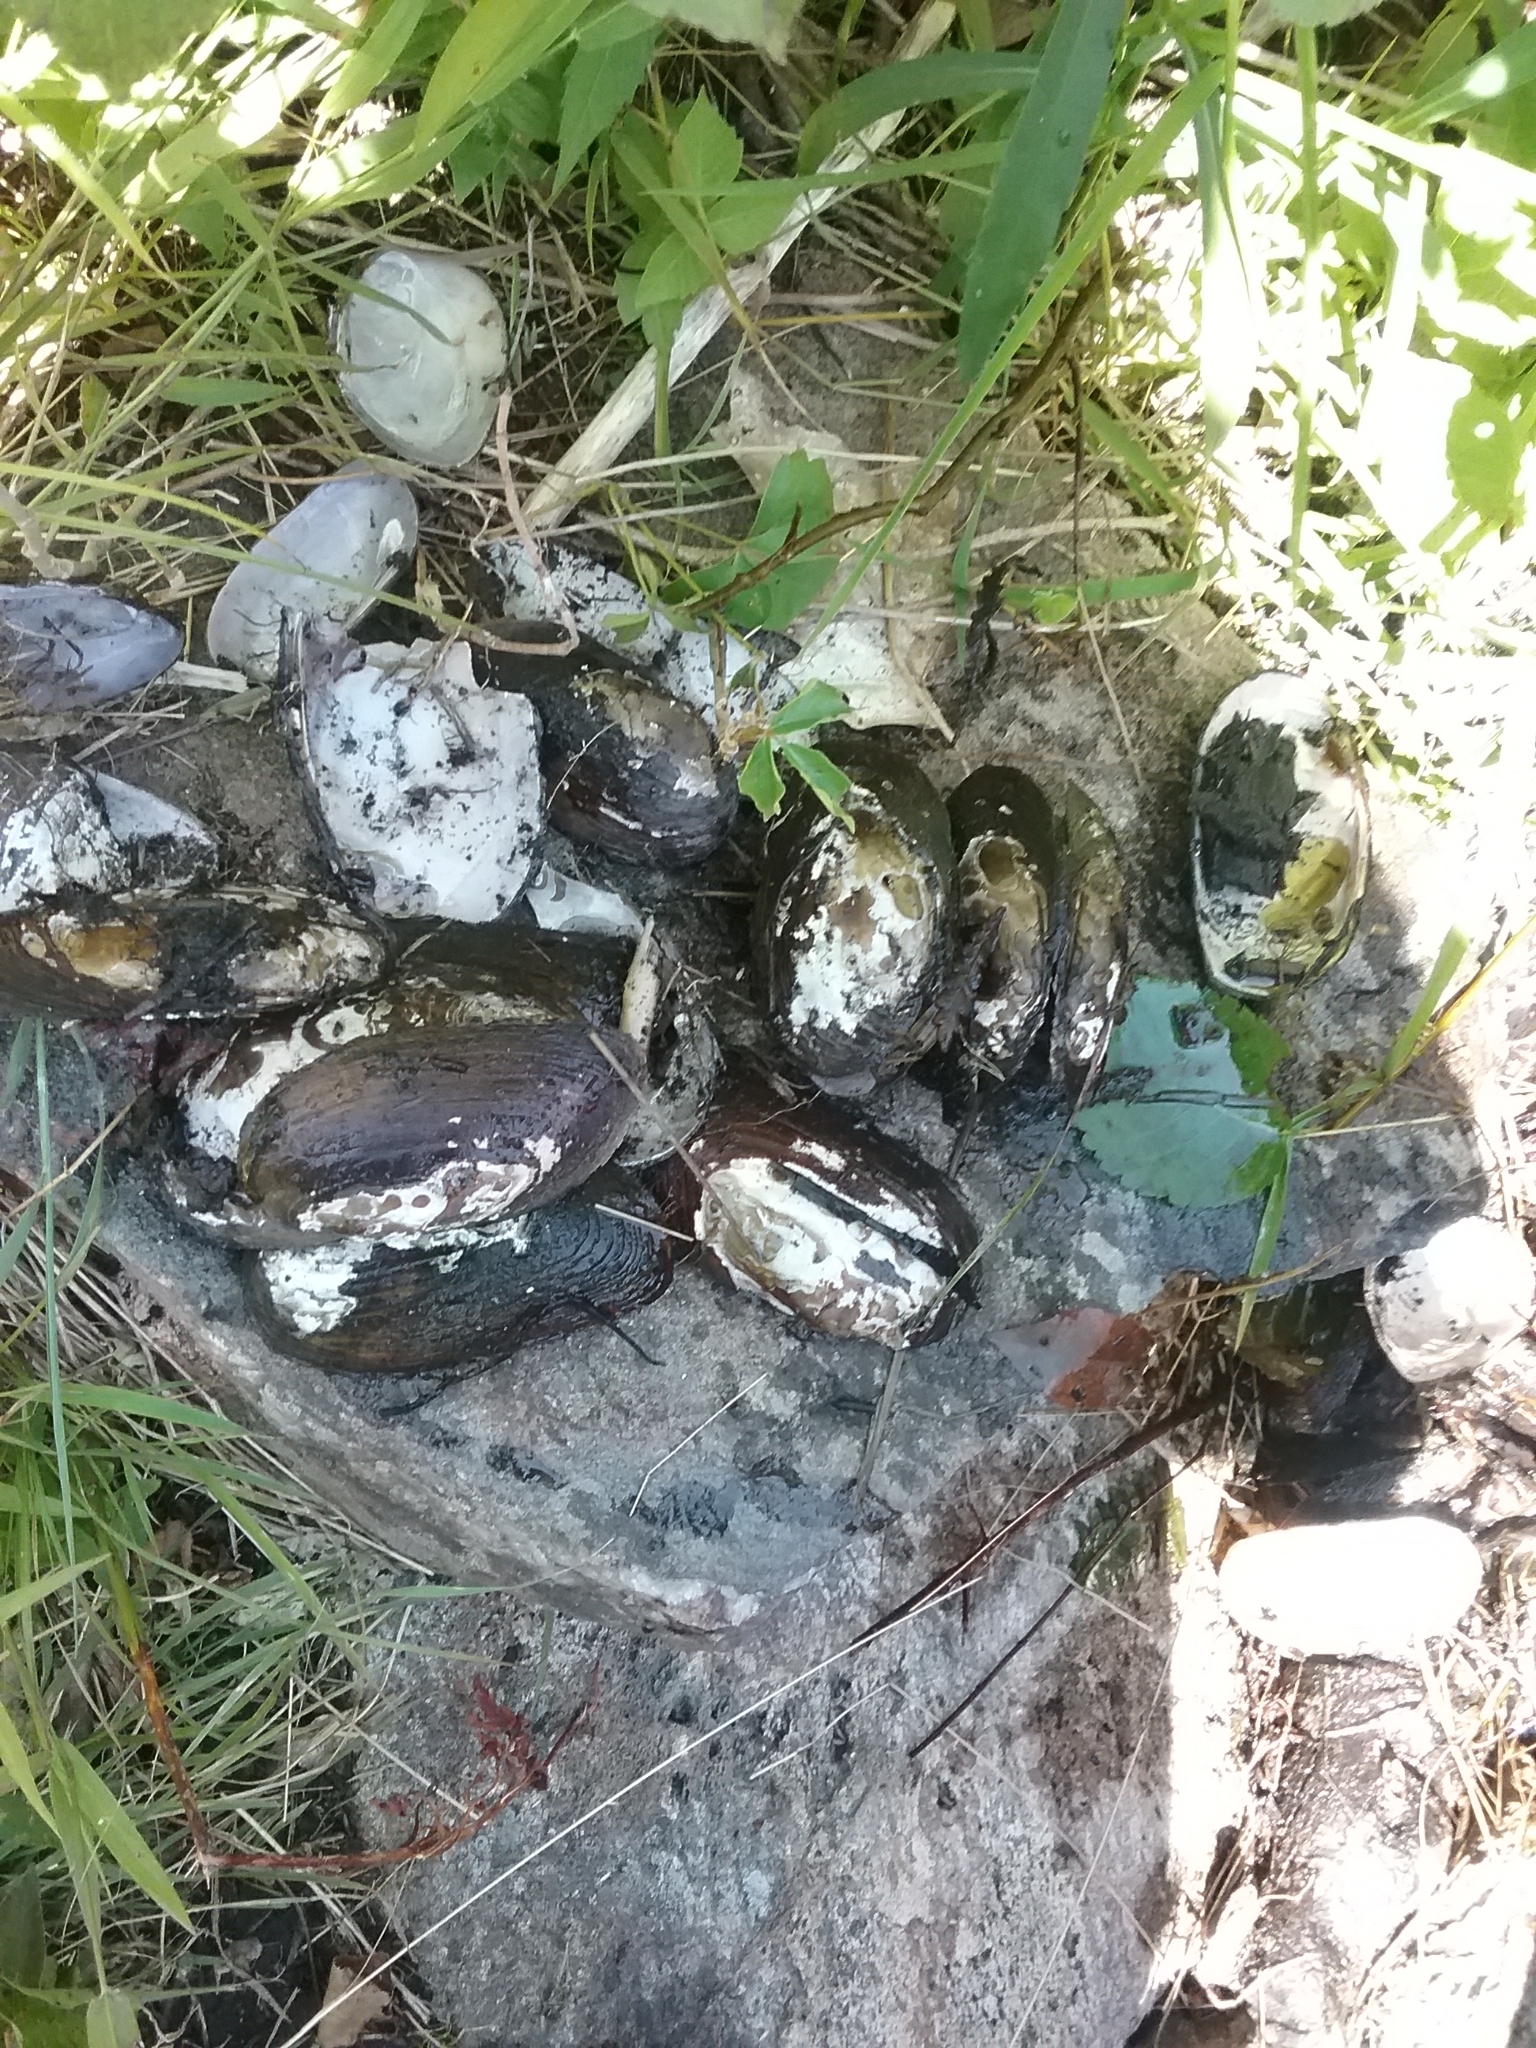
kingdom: Animalia
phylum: Mollusca
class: Bivalvia
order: Unionida
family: Unionidae
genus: Elliptio
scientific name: Elliptio complanata
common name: Eastern elliptio
